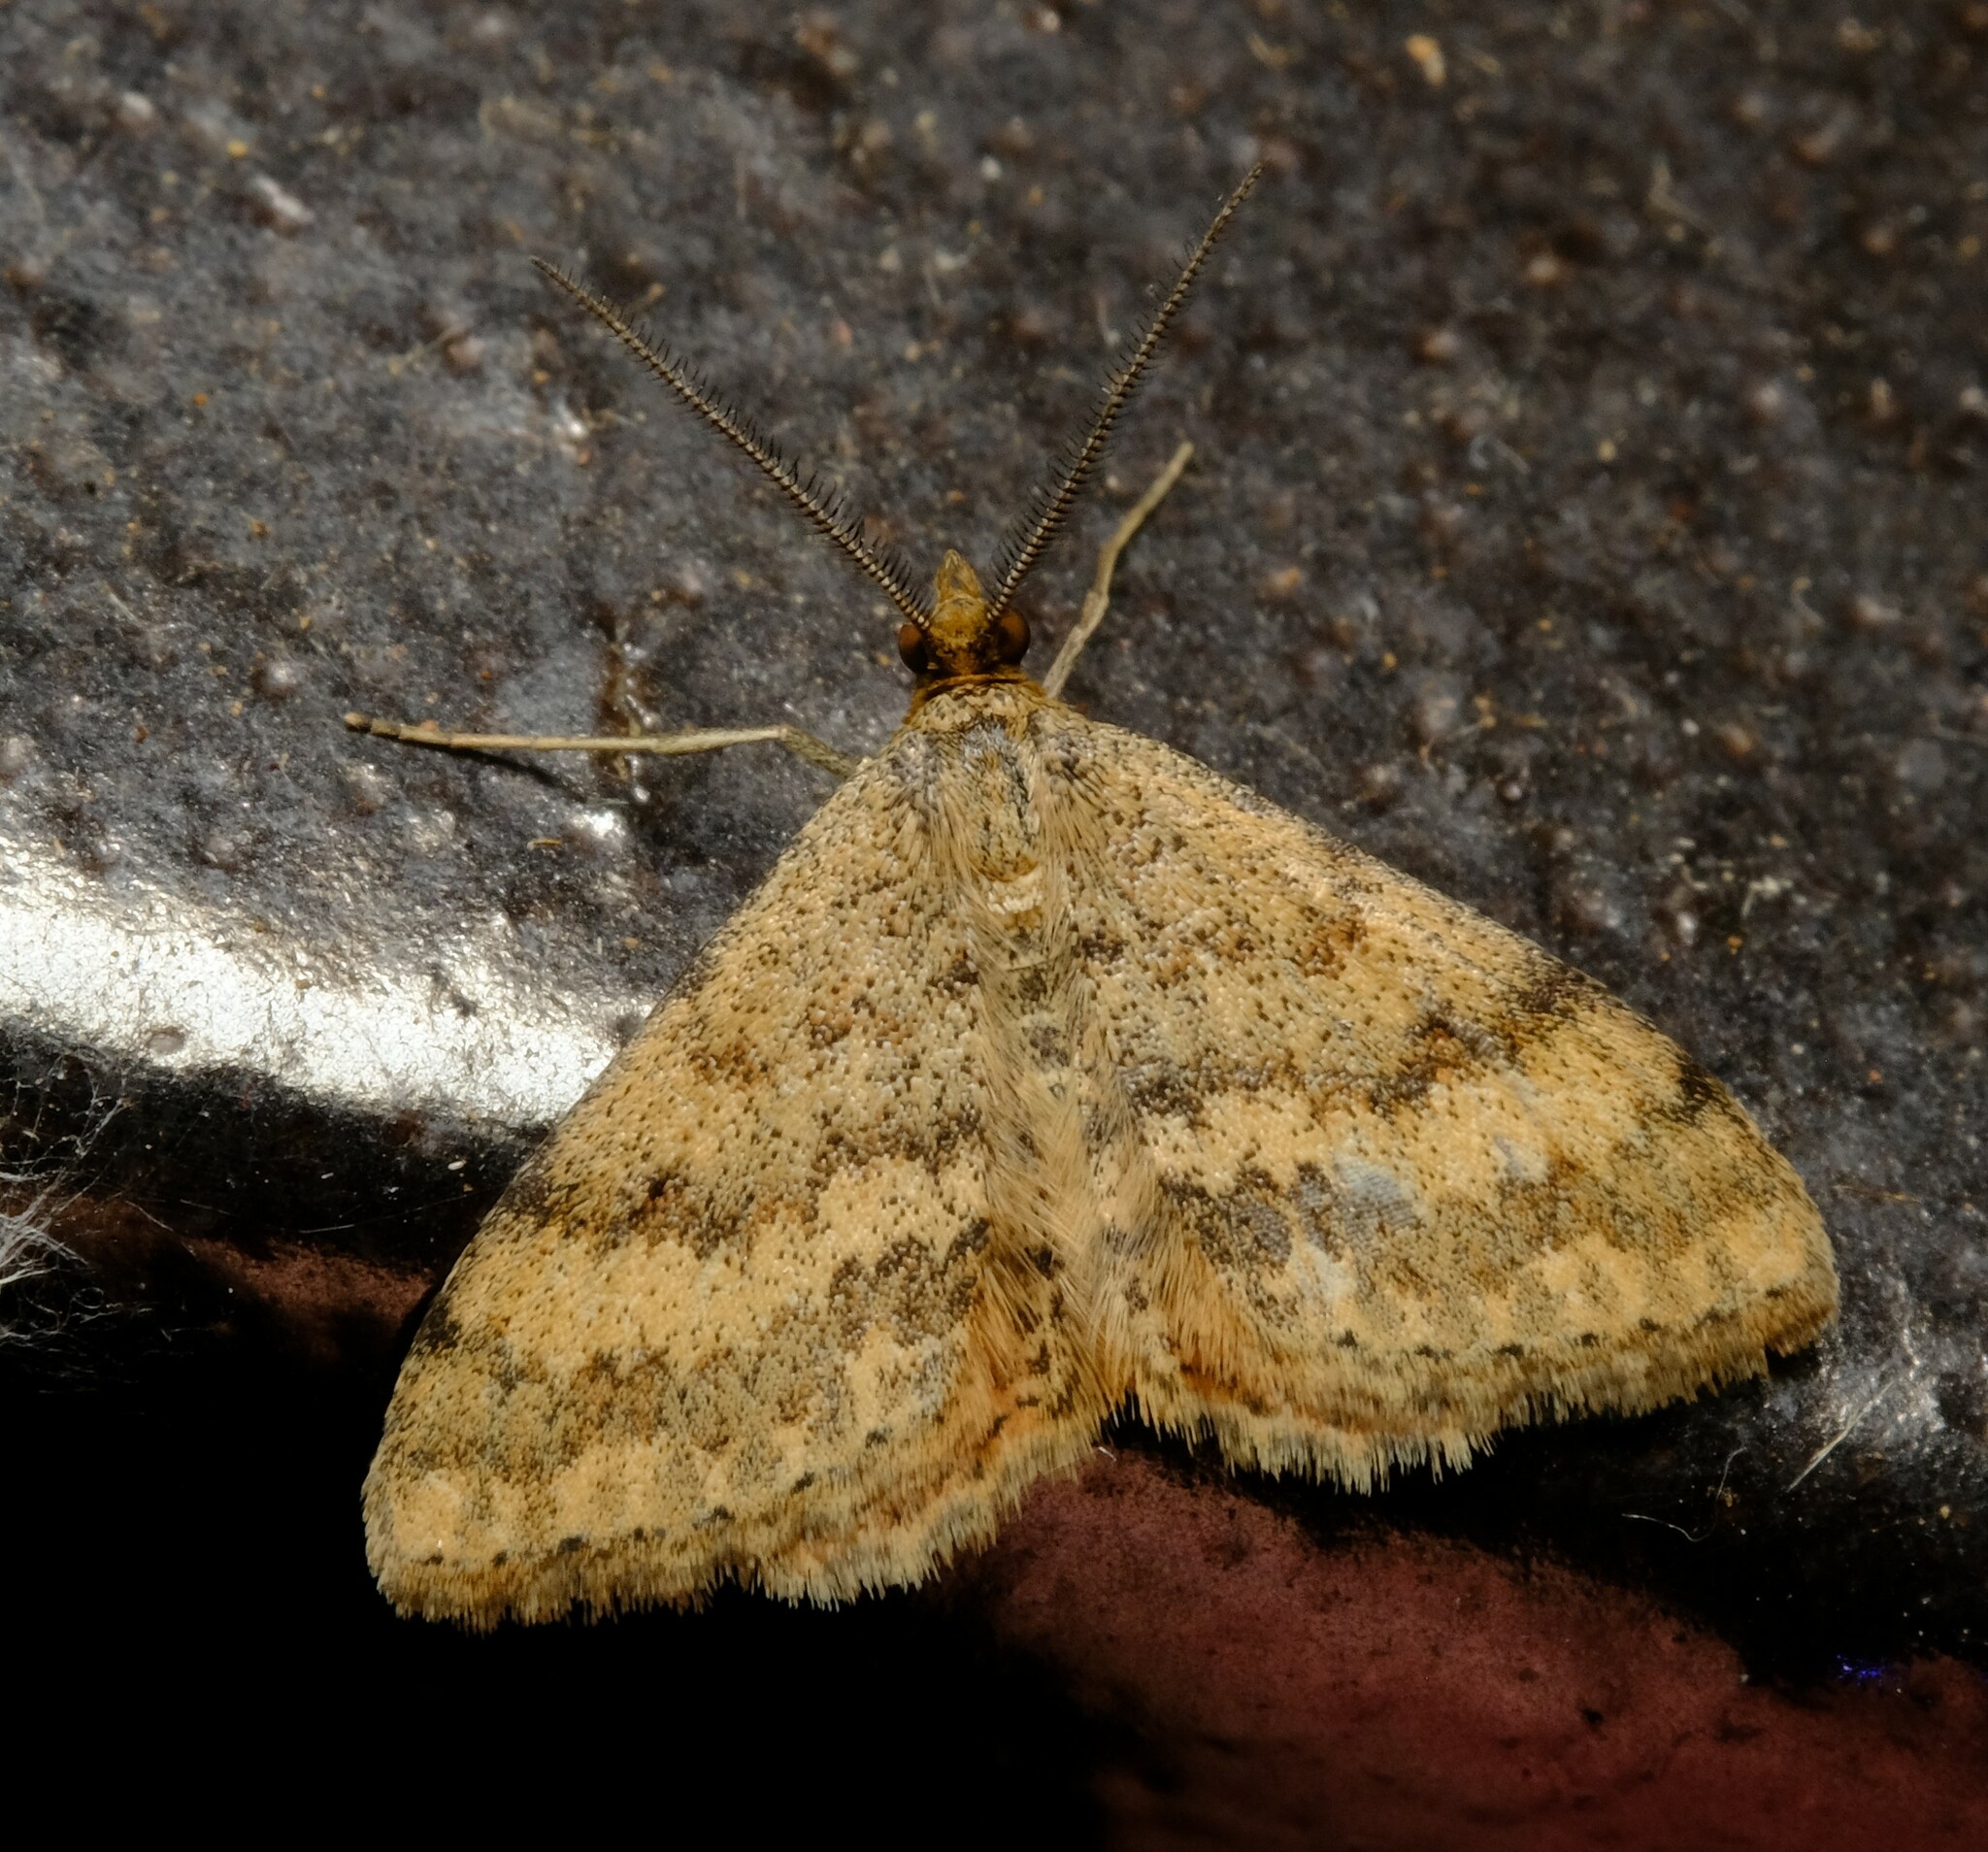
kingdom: Animalia
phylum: Arthropoda
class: Insecta
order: Lepidoptera
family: Geometridae
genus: Scopula
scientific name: Scopula rubraria
